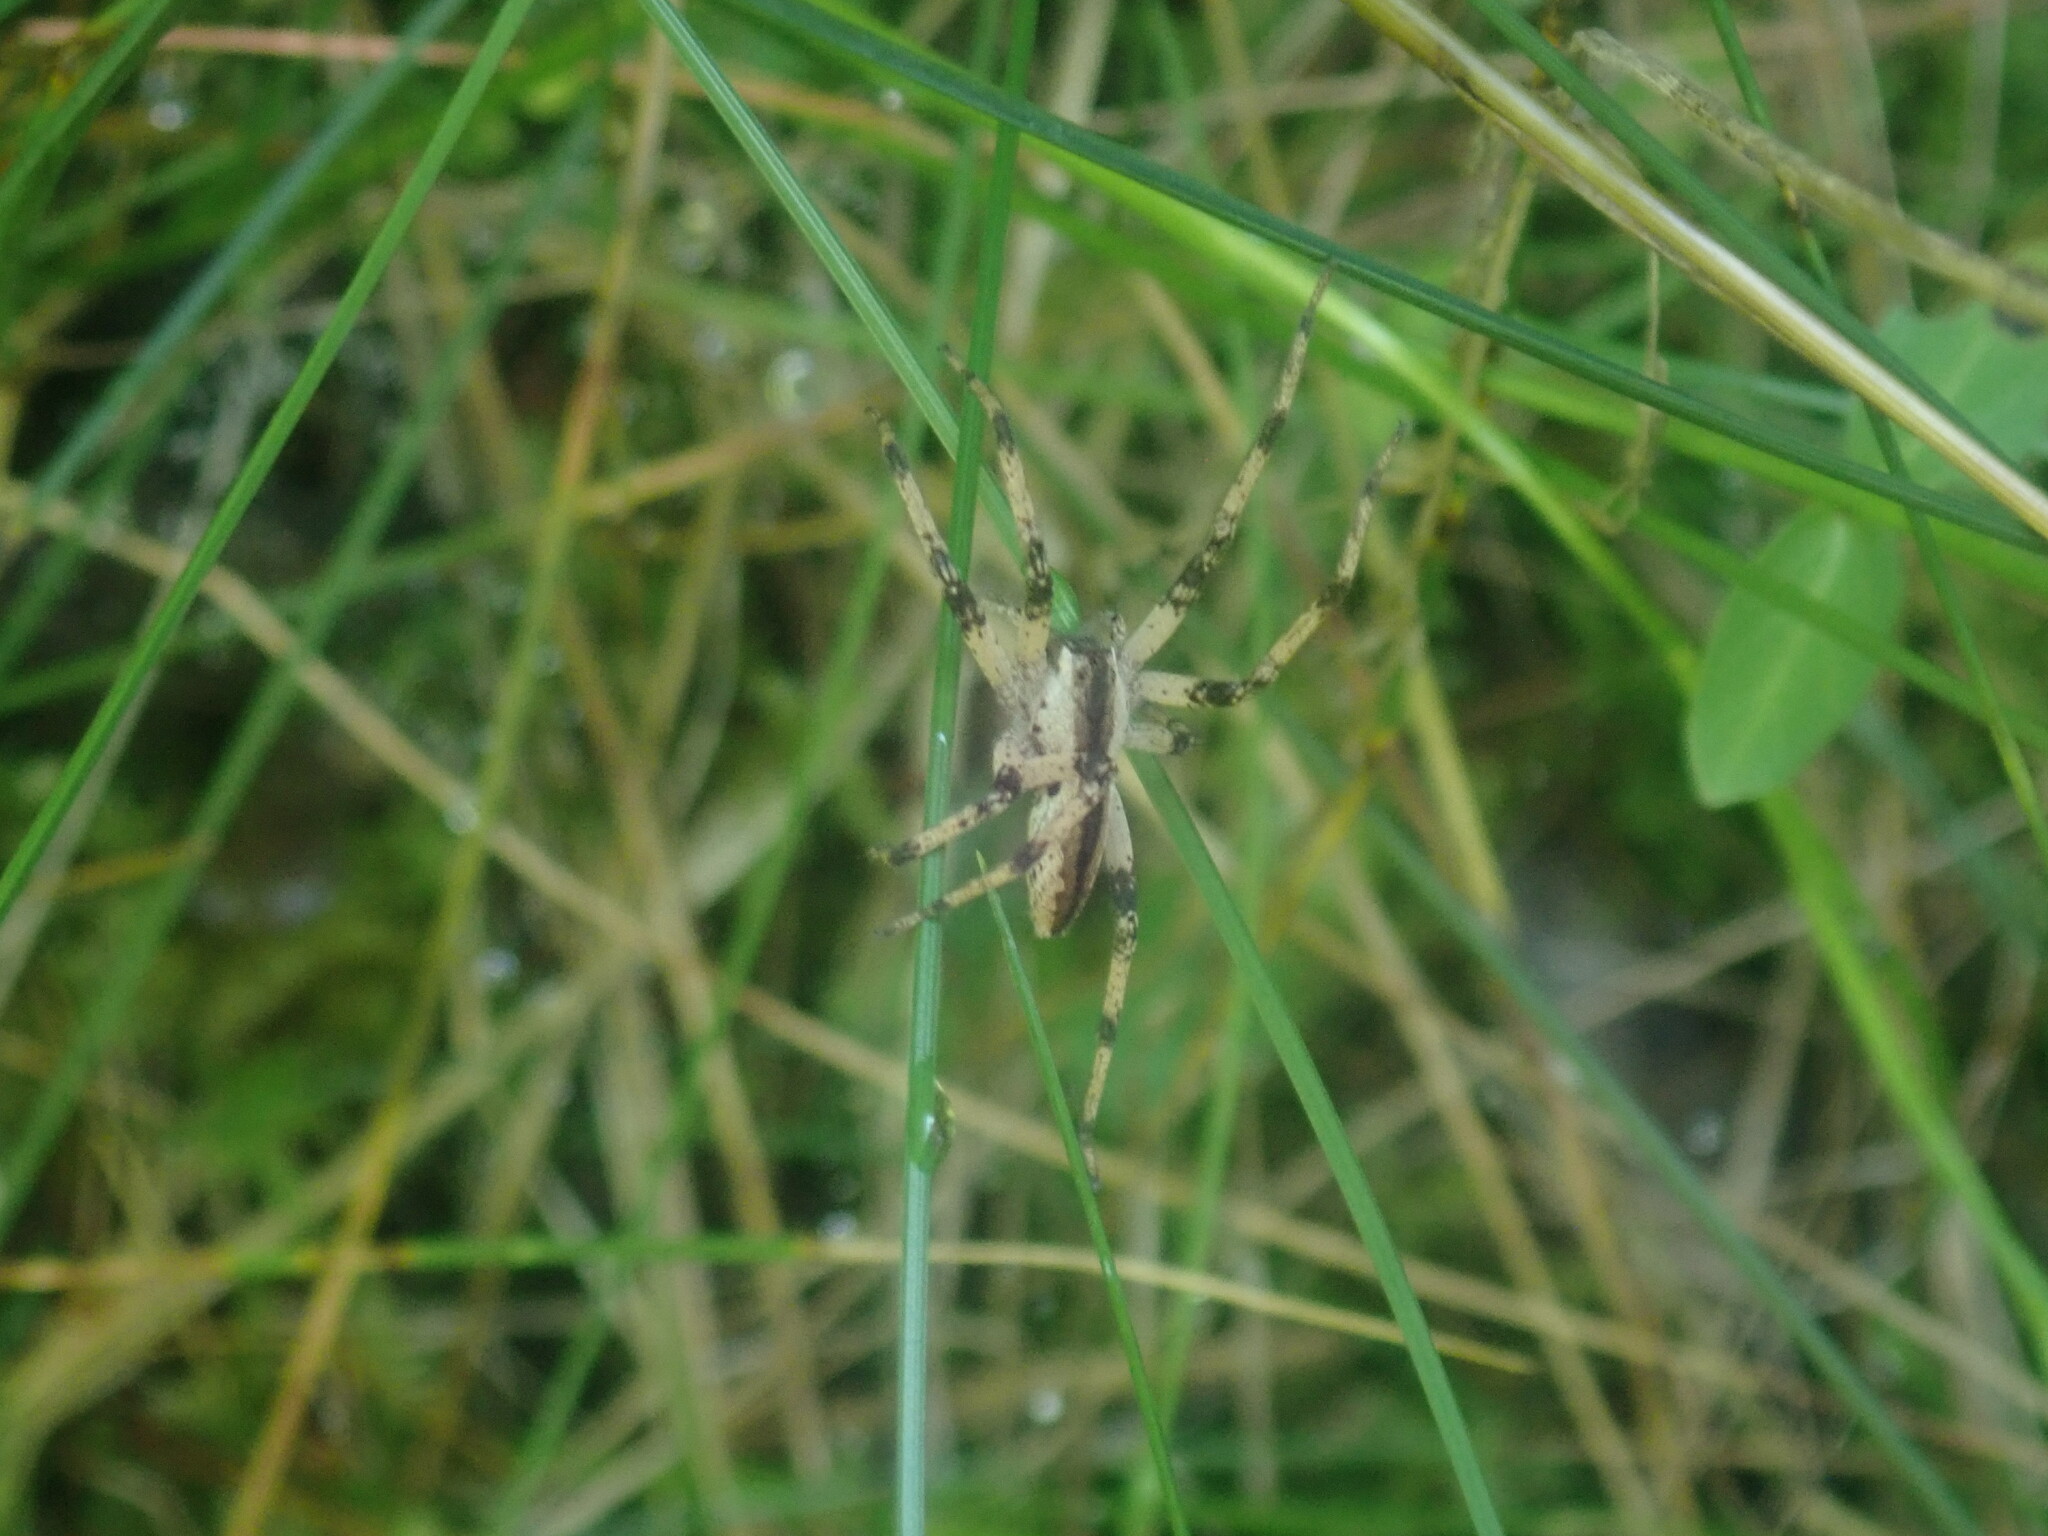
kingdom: Animalia
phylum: Arthropoda
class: Arachnida
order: Araneae
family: Pisauridae
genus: Pisaurina
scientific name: Pisaurina mira
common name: American nursery web spider
